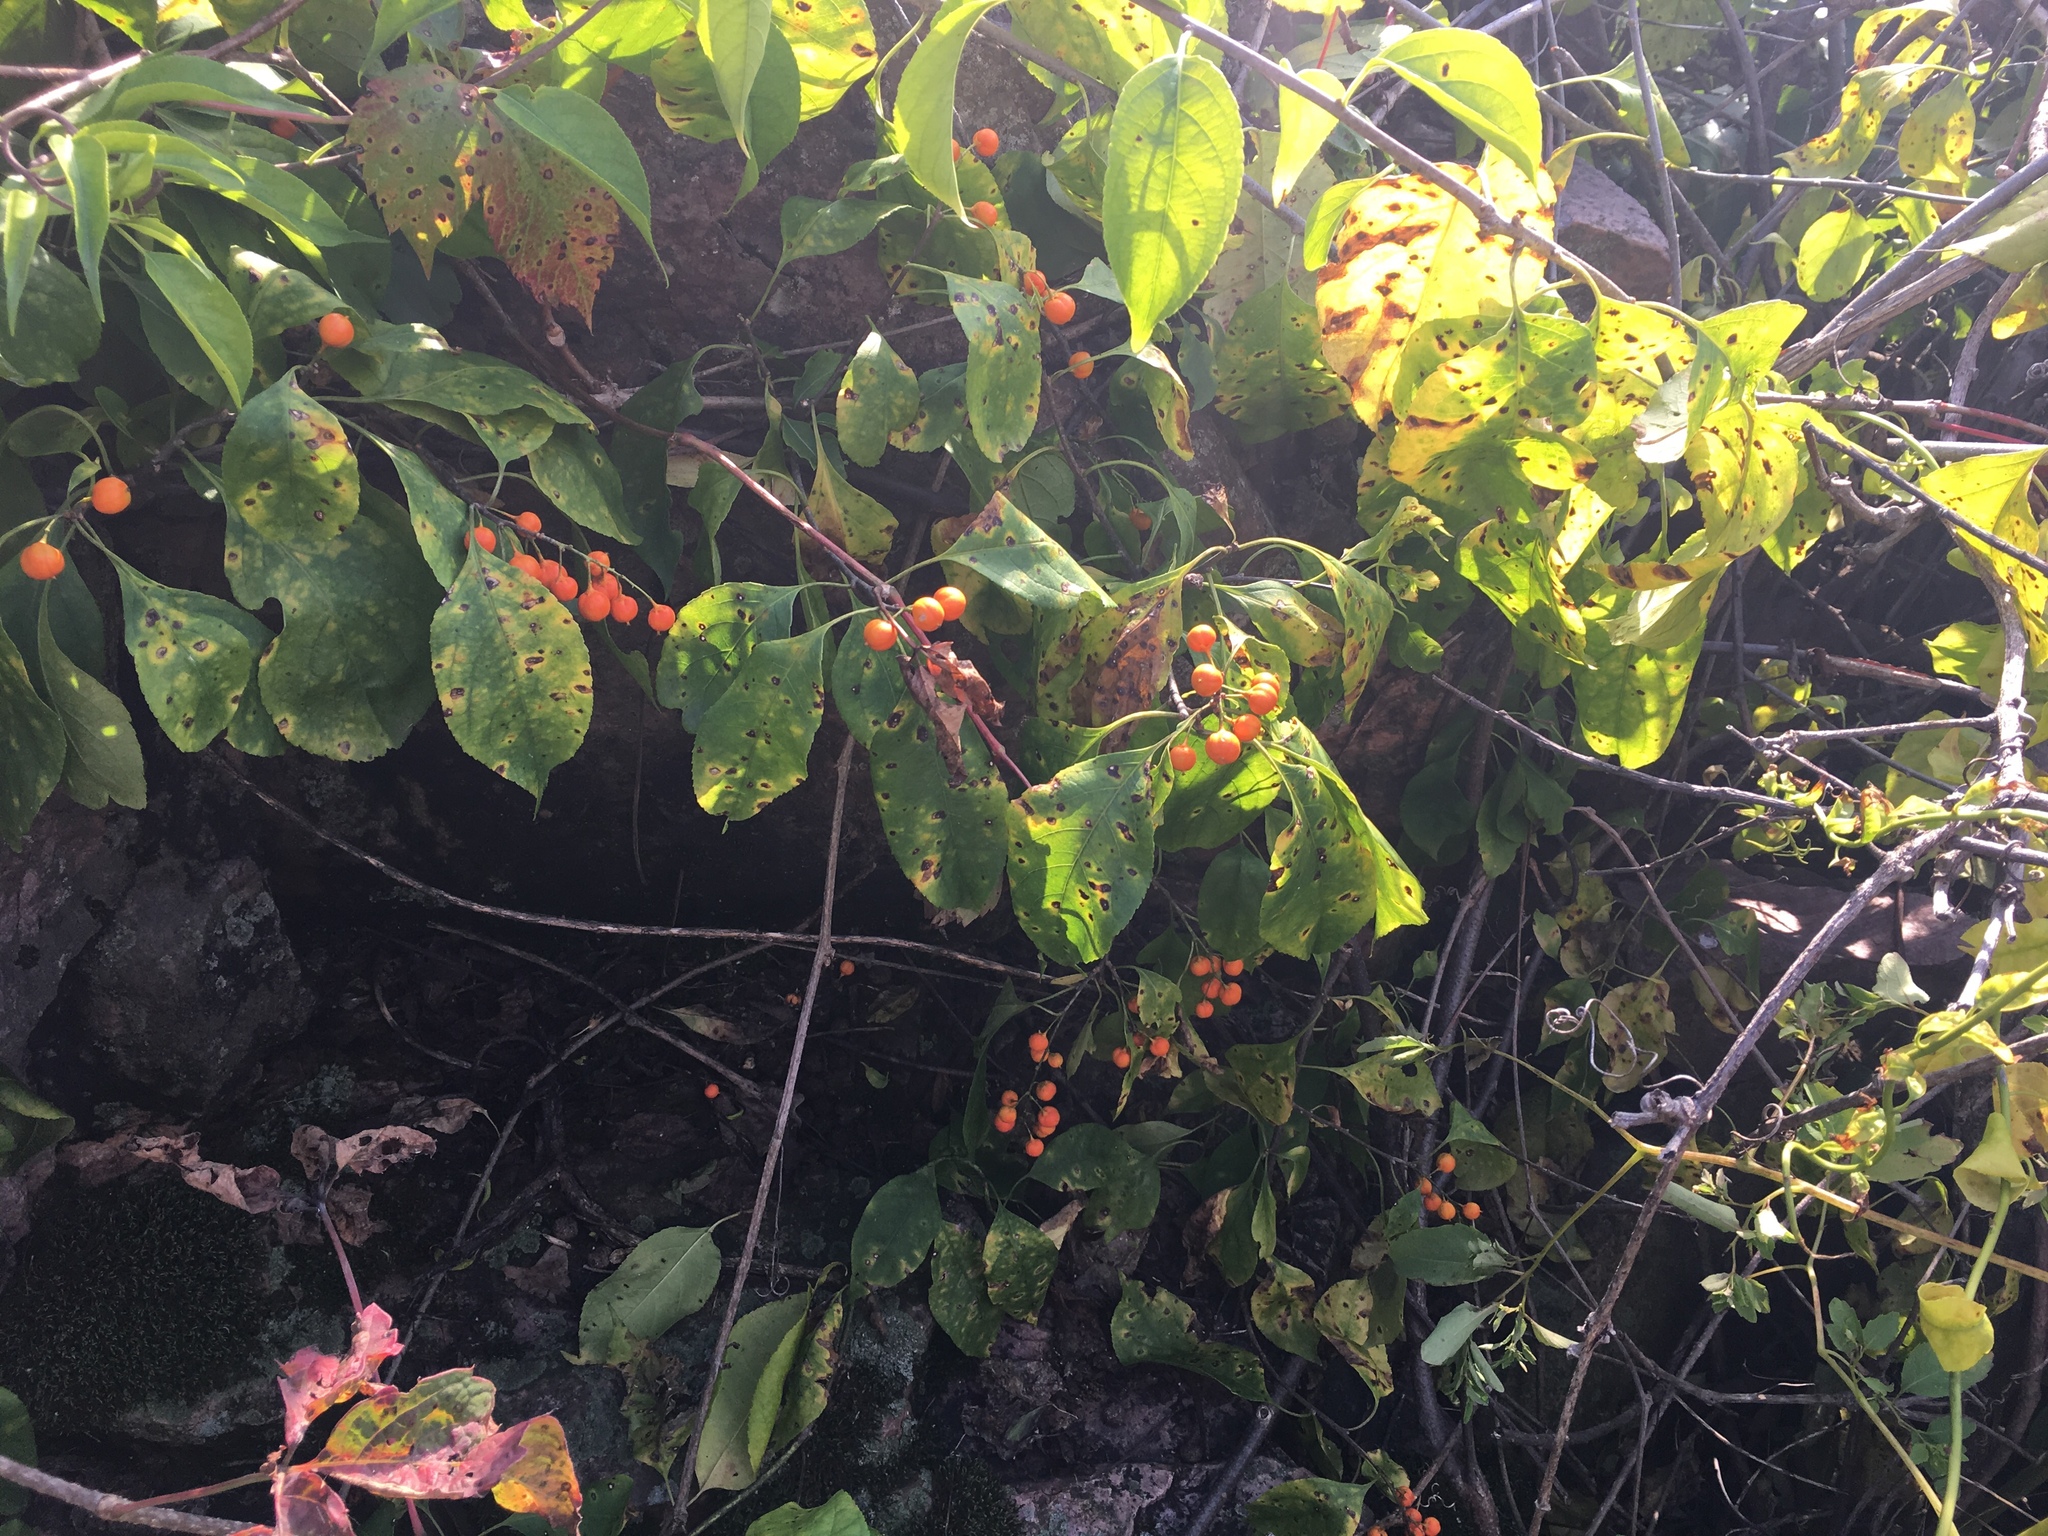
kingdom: Plantae
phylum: Tracheophyta
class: Magnoliopsida
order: Celastrales
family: Celastraceae
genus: Celastrus
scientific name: Celastrus scandens
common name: American bittersweet
